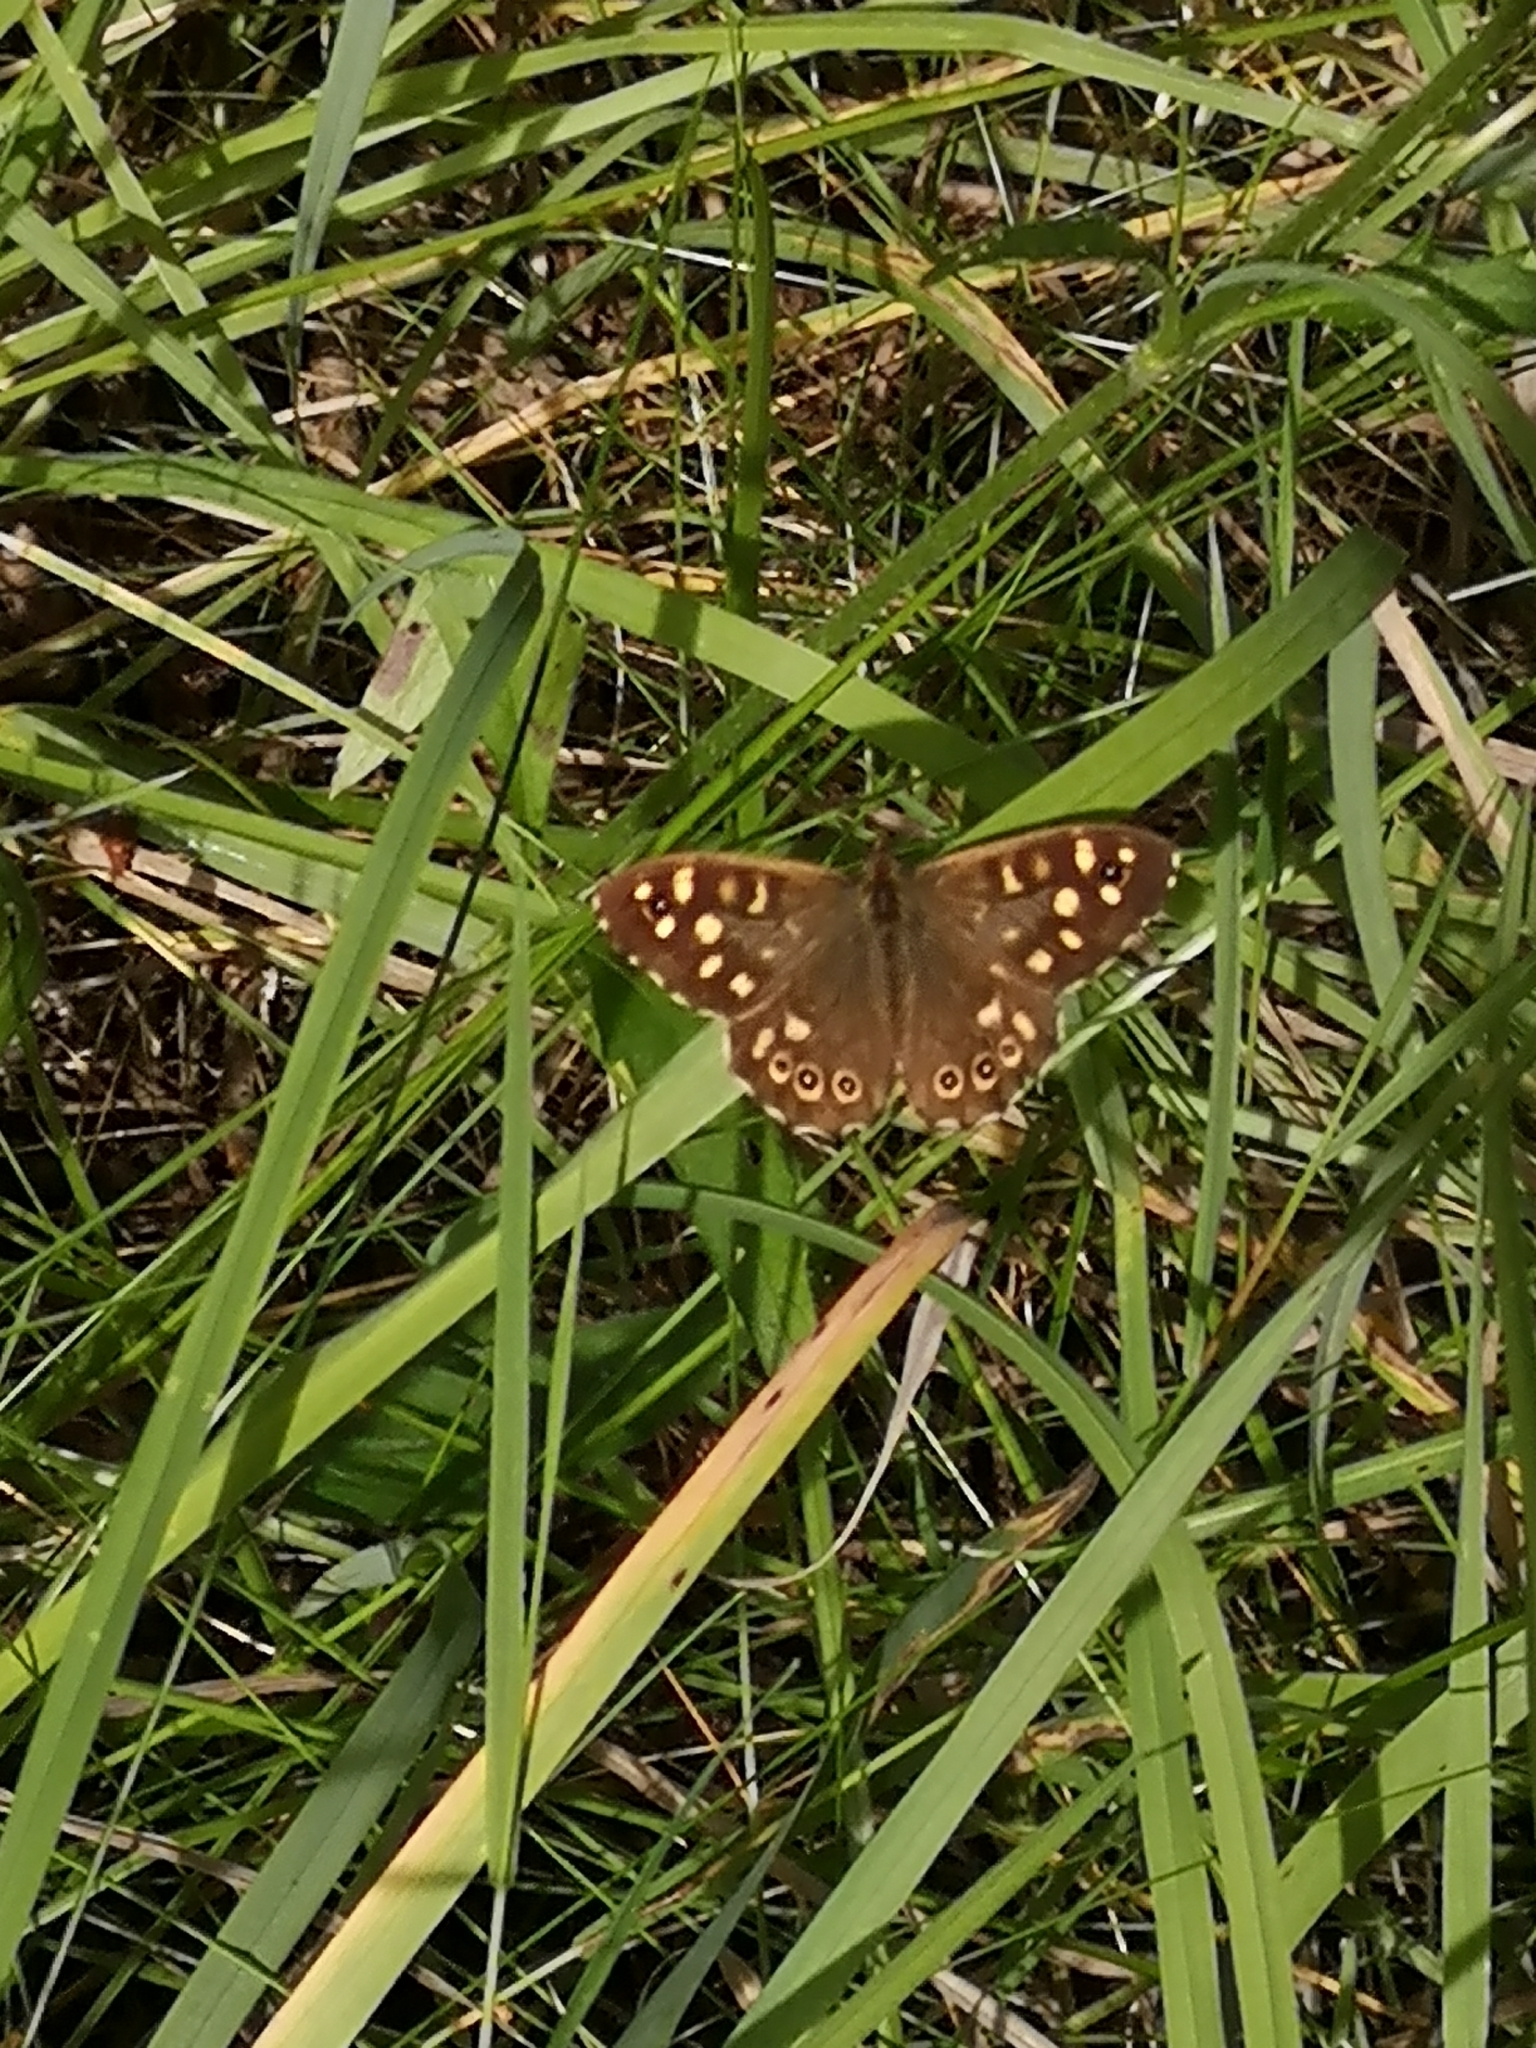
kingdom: Animalia
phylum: Arthropoda
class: Insecta
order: Lepidoptera
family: Nymphalidae
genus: Pararge
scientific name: Pararge aegeria
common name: Speckled wood
